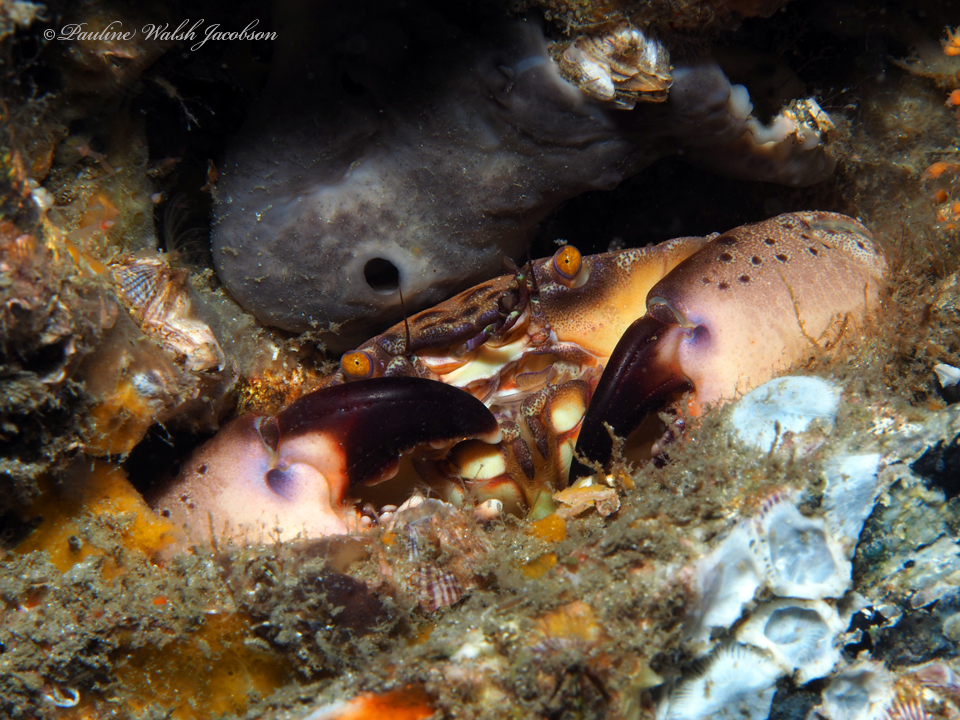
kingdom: Animalia
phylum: Arthropoda
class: Malacostraca
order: Decapoda
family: Menippidae
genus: Menippe
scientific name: Menippe mercenaria
